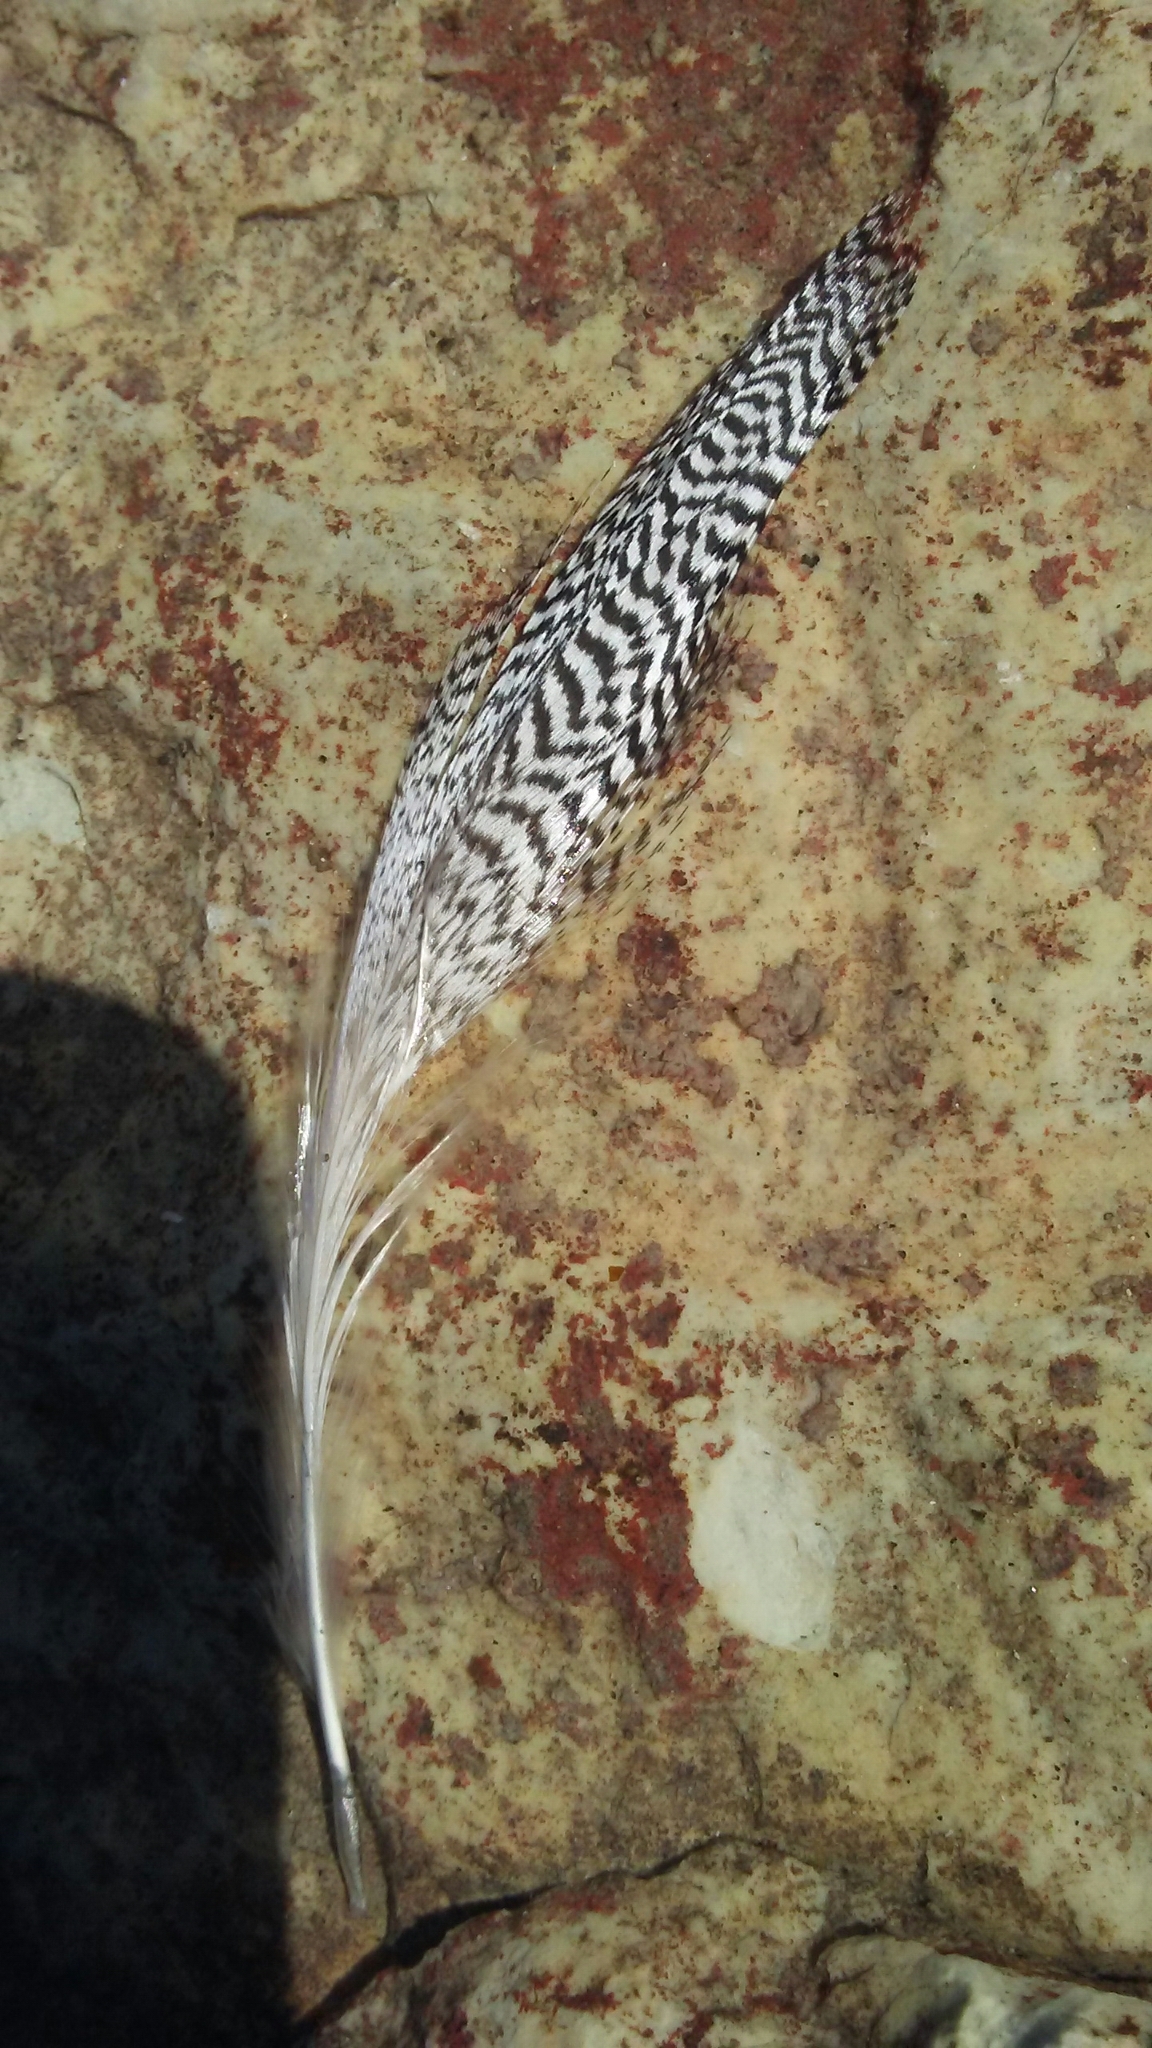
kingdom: Animalia
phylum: Chordata
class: Aves
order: Anseriformes
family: Anatidae
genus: Mergus
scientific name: Mergus serrator
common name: Red-breasted merganser
